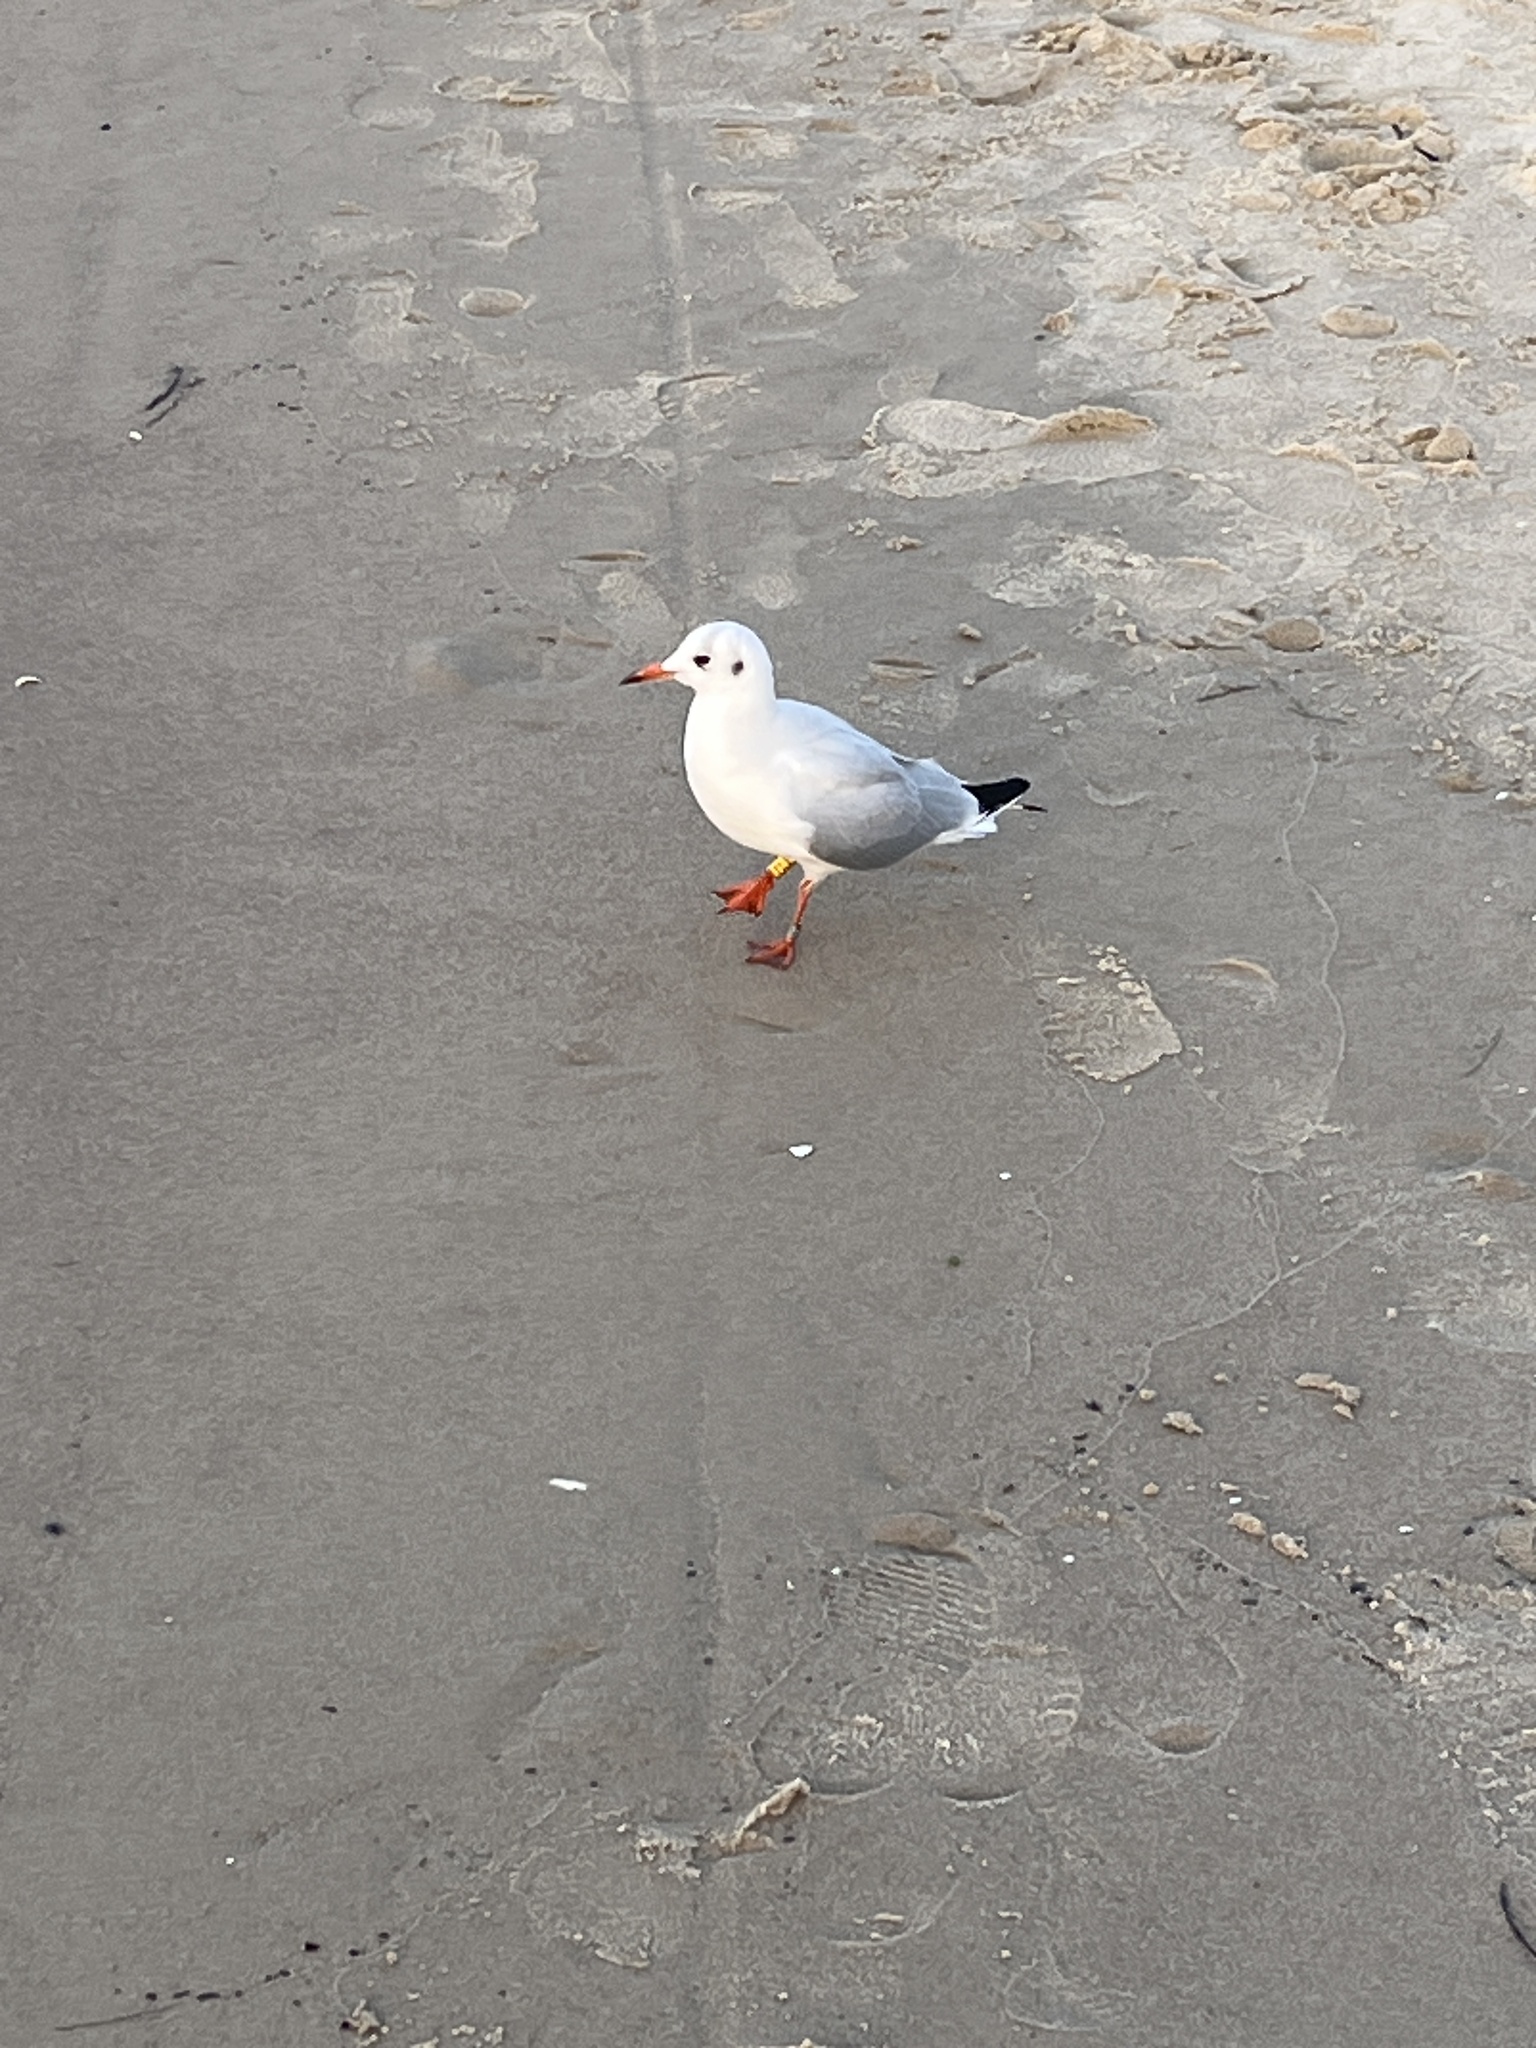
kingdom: Animalia
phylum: Chordata
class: Aves
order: Charadriiformes
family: Laridae
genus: Chroicocephalus
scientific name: Chroicocephalus ridibundus
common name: Black-headed gull
